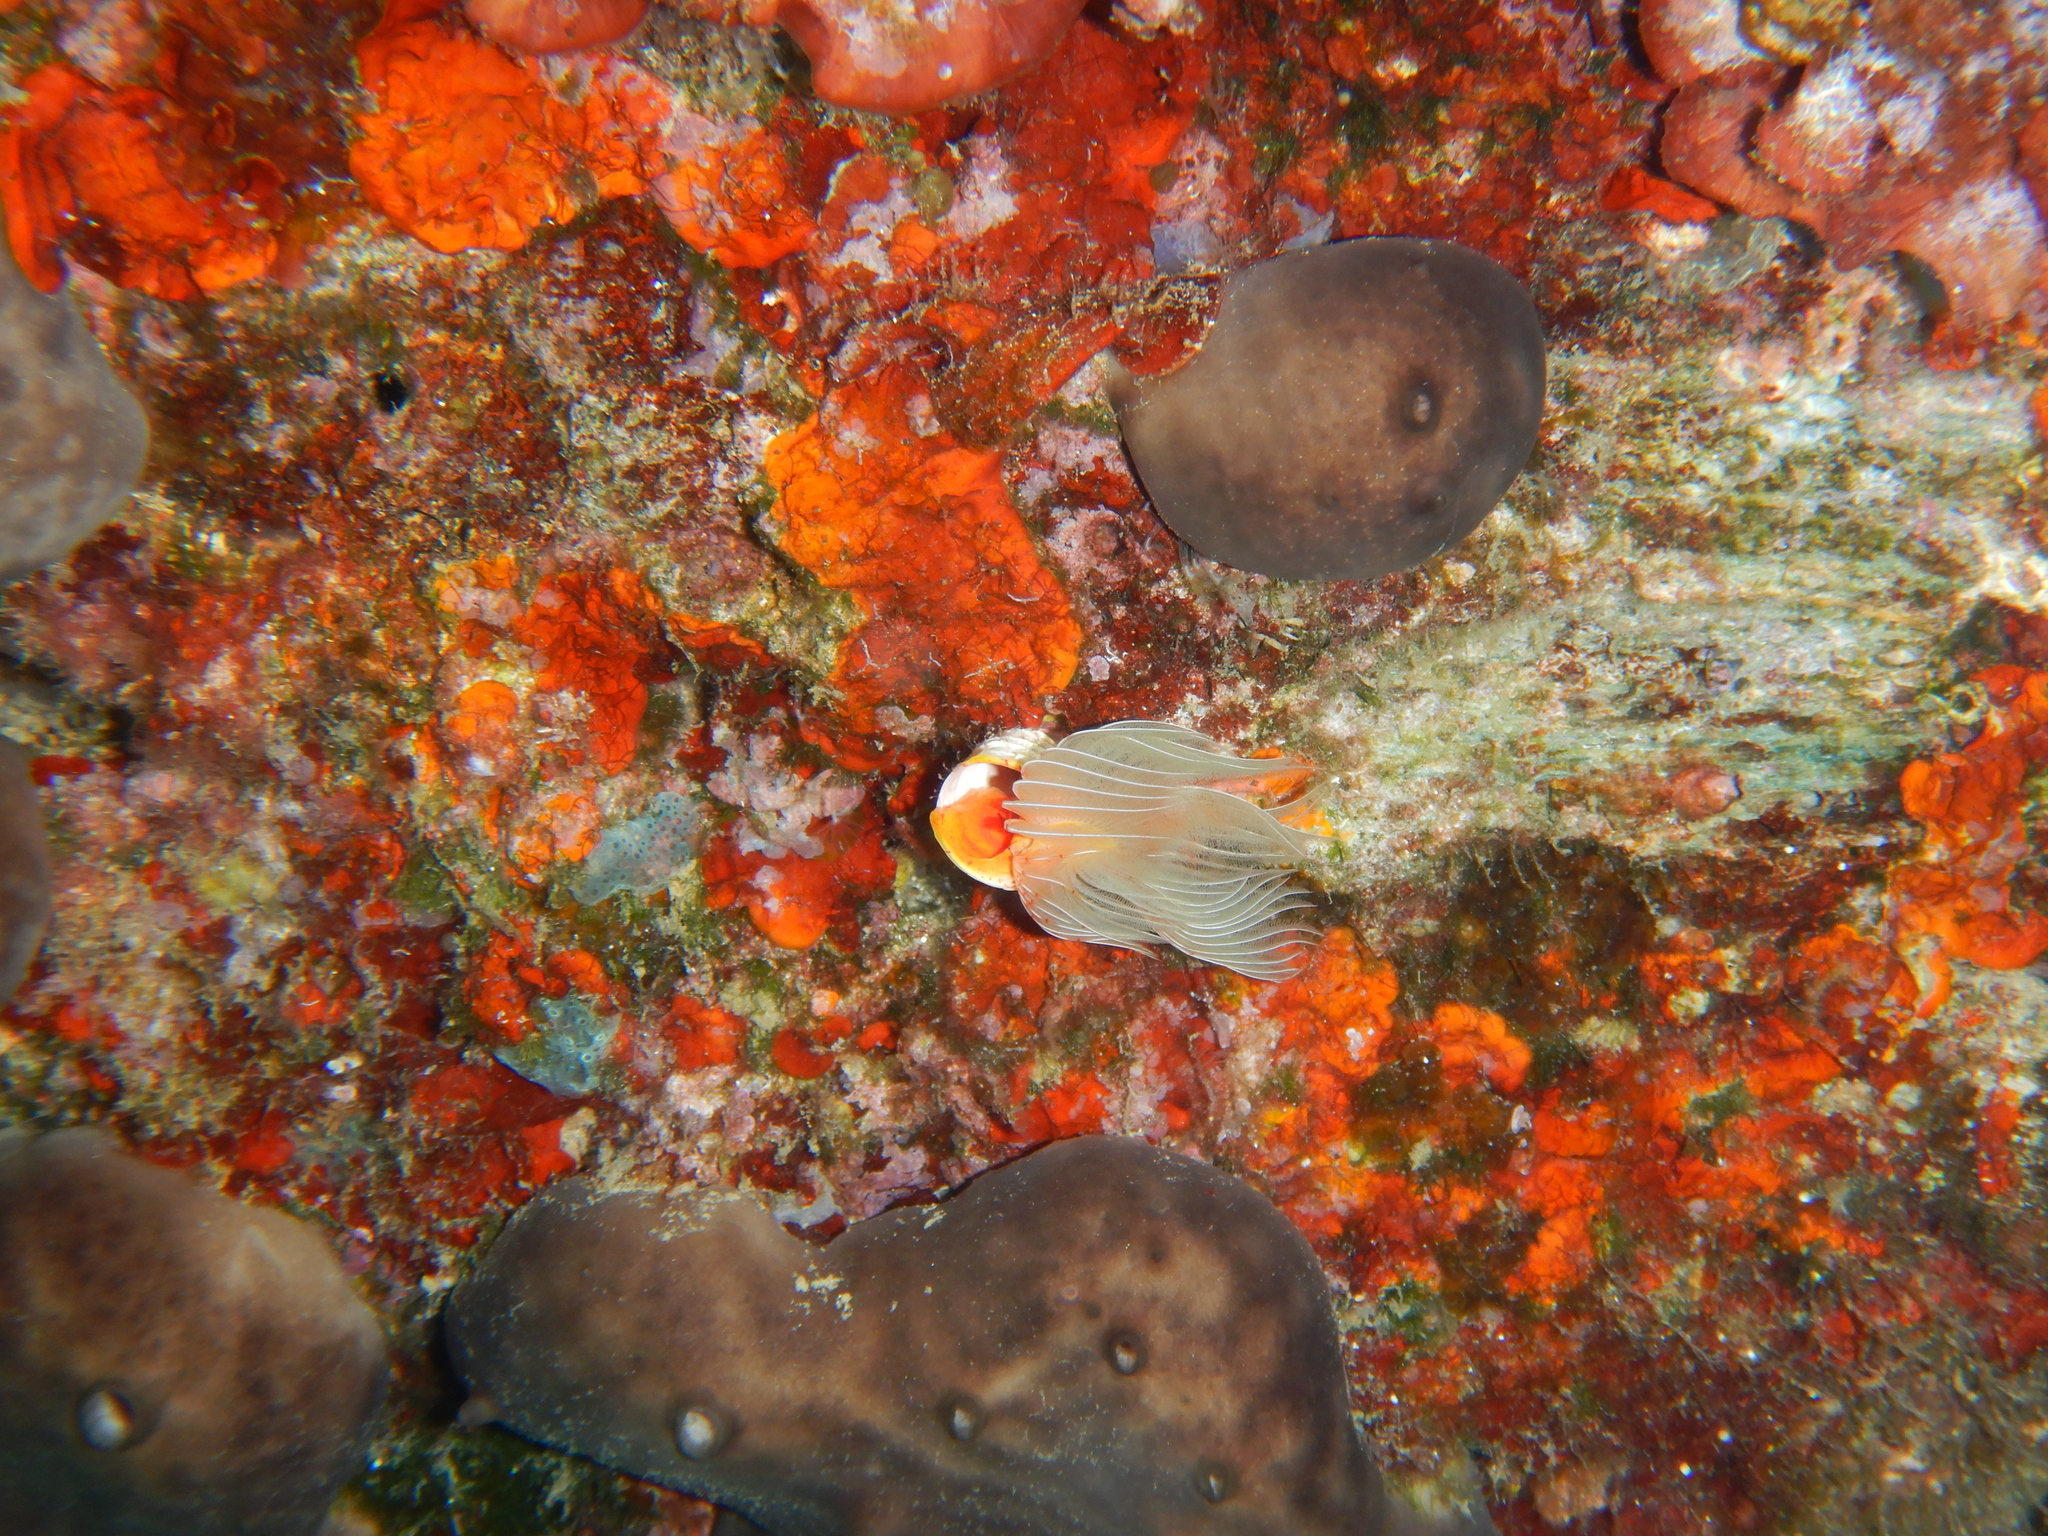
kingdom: Animalia
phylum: Annelida
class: Polychaeta
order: Sabellida
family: Serpulidae
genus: Protula
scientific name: Protula tubularia
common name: Red-spotted horseshoe
